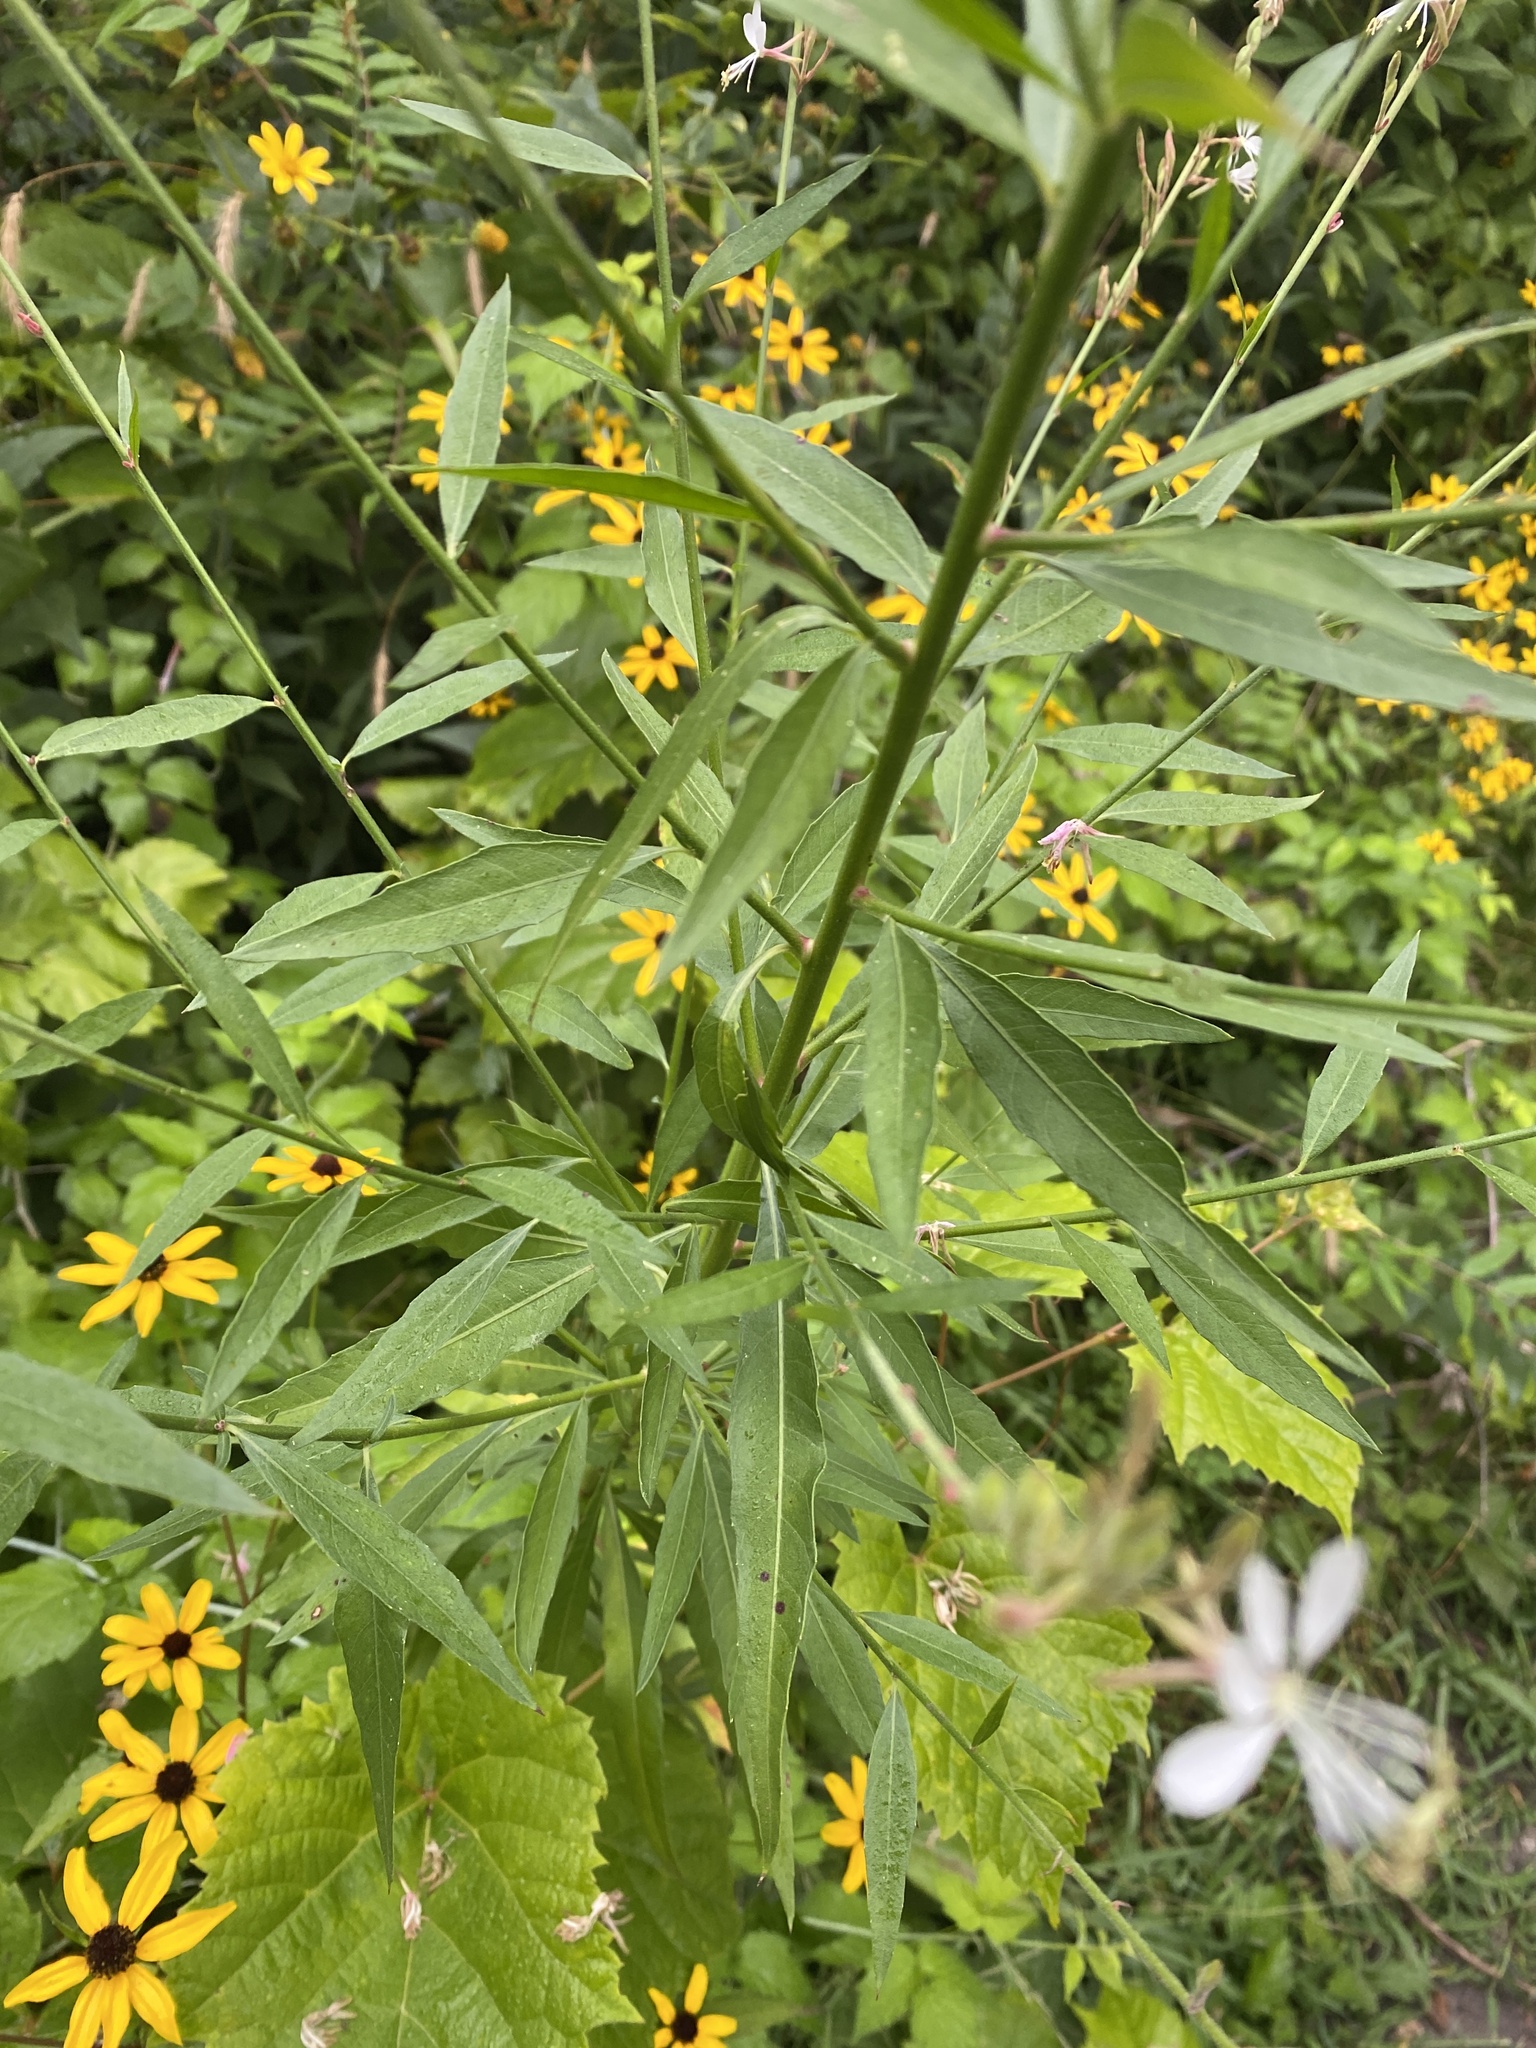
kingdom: Plantae
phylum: Tracheophyta
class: Magnoliopsida
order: Myrtales
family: Onagraceae
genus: Oenothera
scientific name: Oenothera gaura
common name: Biennial beeblossom
